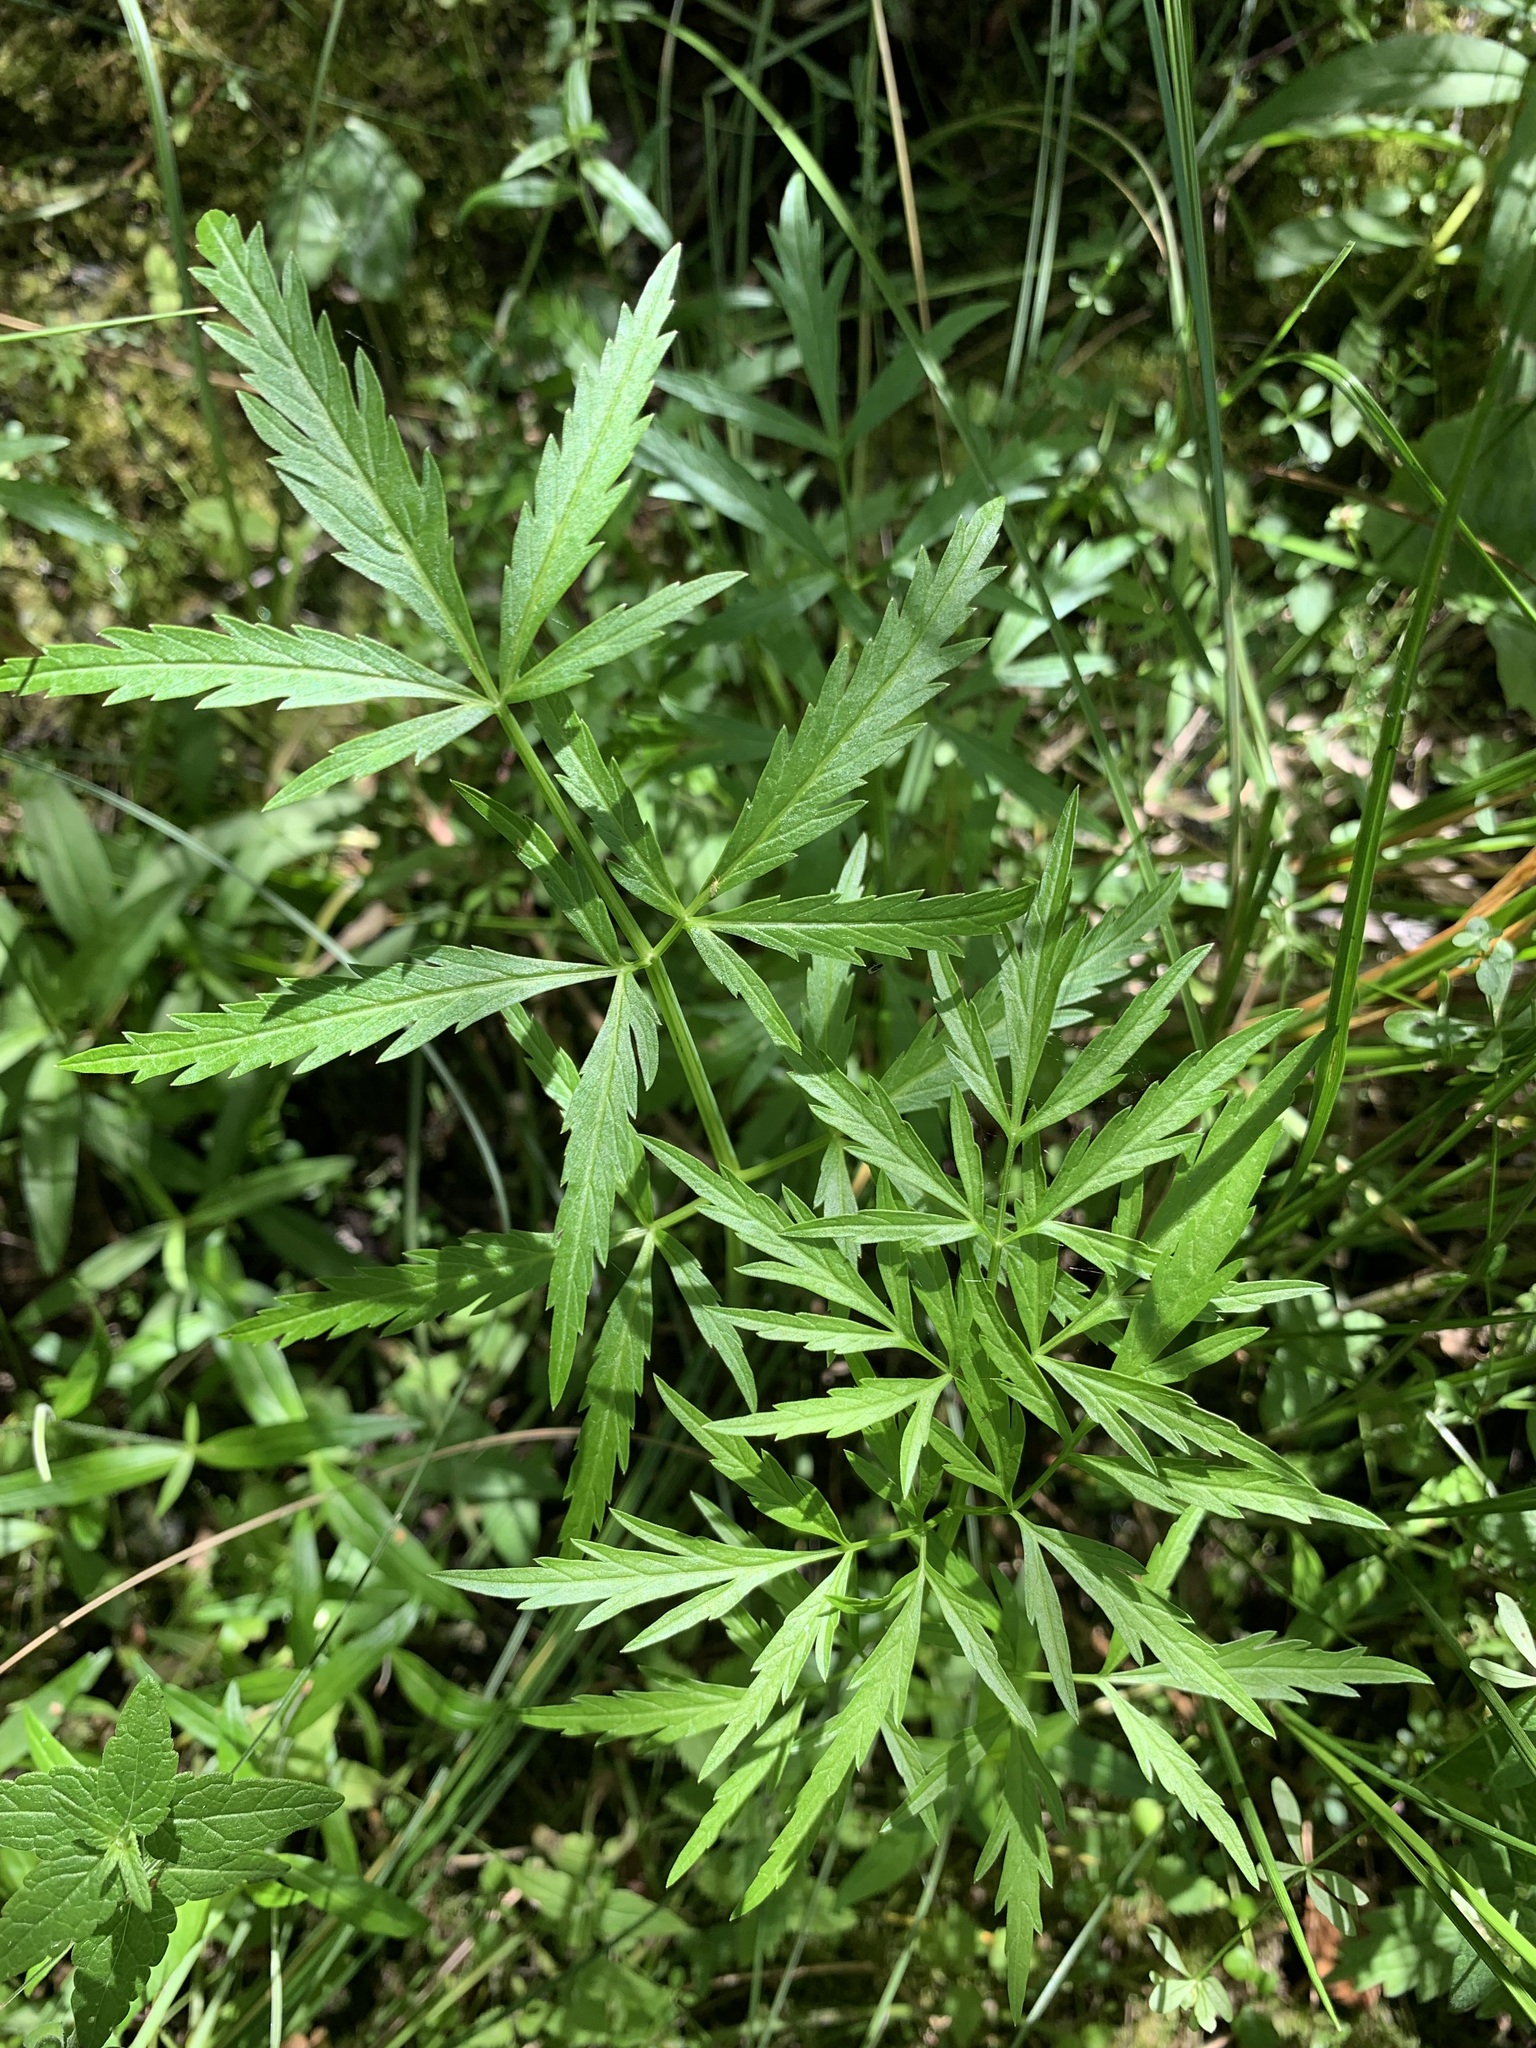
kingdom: Plantae
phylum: Tracheophyta
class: Magnoliopsida
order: Apiales
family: Apiaceae
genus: Cicuta
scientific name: Cicuta virosa
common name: Cowbane
